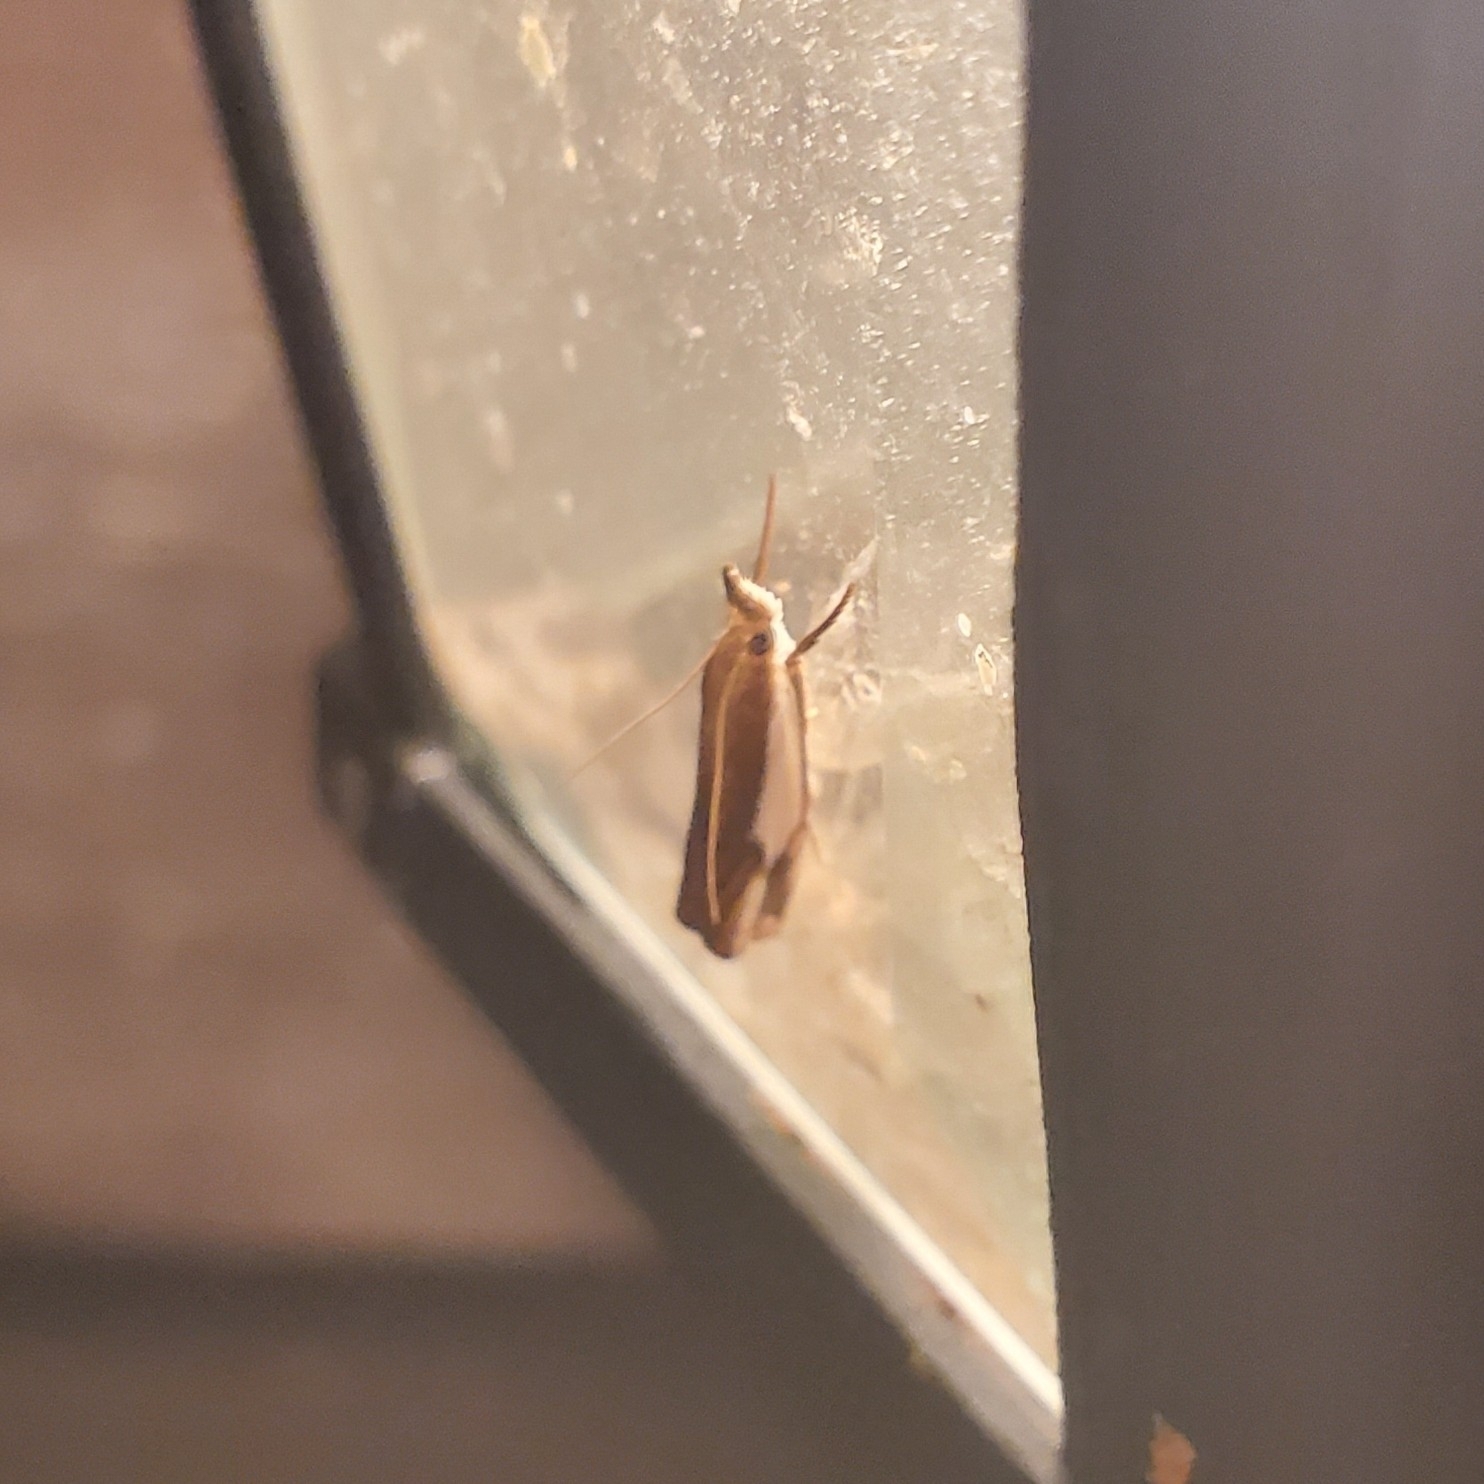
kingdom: Animalia
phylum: Arthropoda
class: Insecta
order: Lepidoptera
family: Crambidae
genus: Crambus
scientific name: Crambus agitatellus
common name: Double-banded grass-veneer
